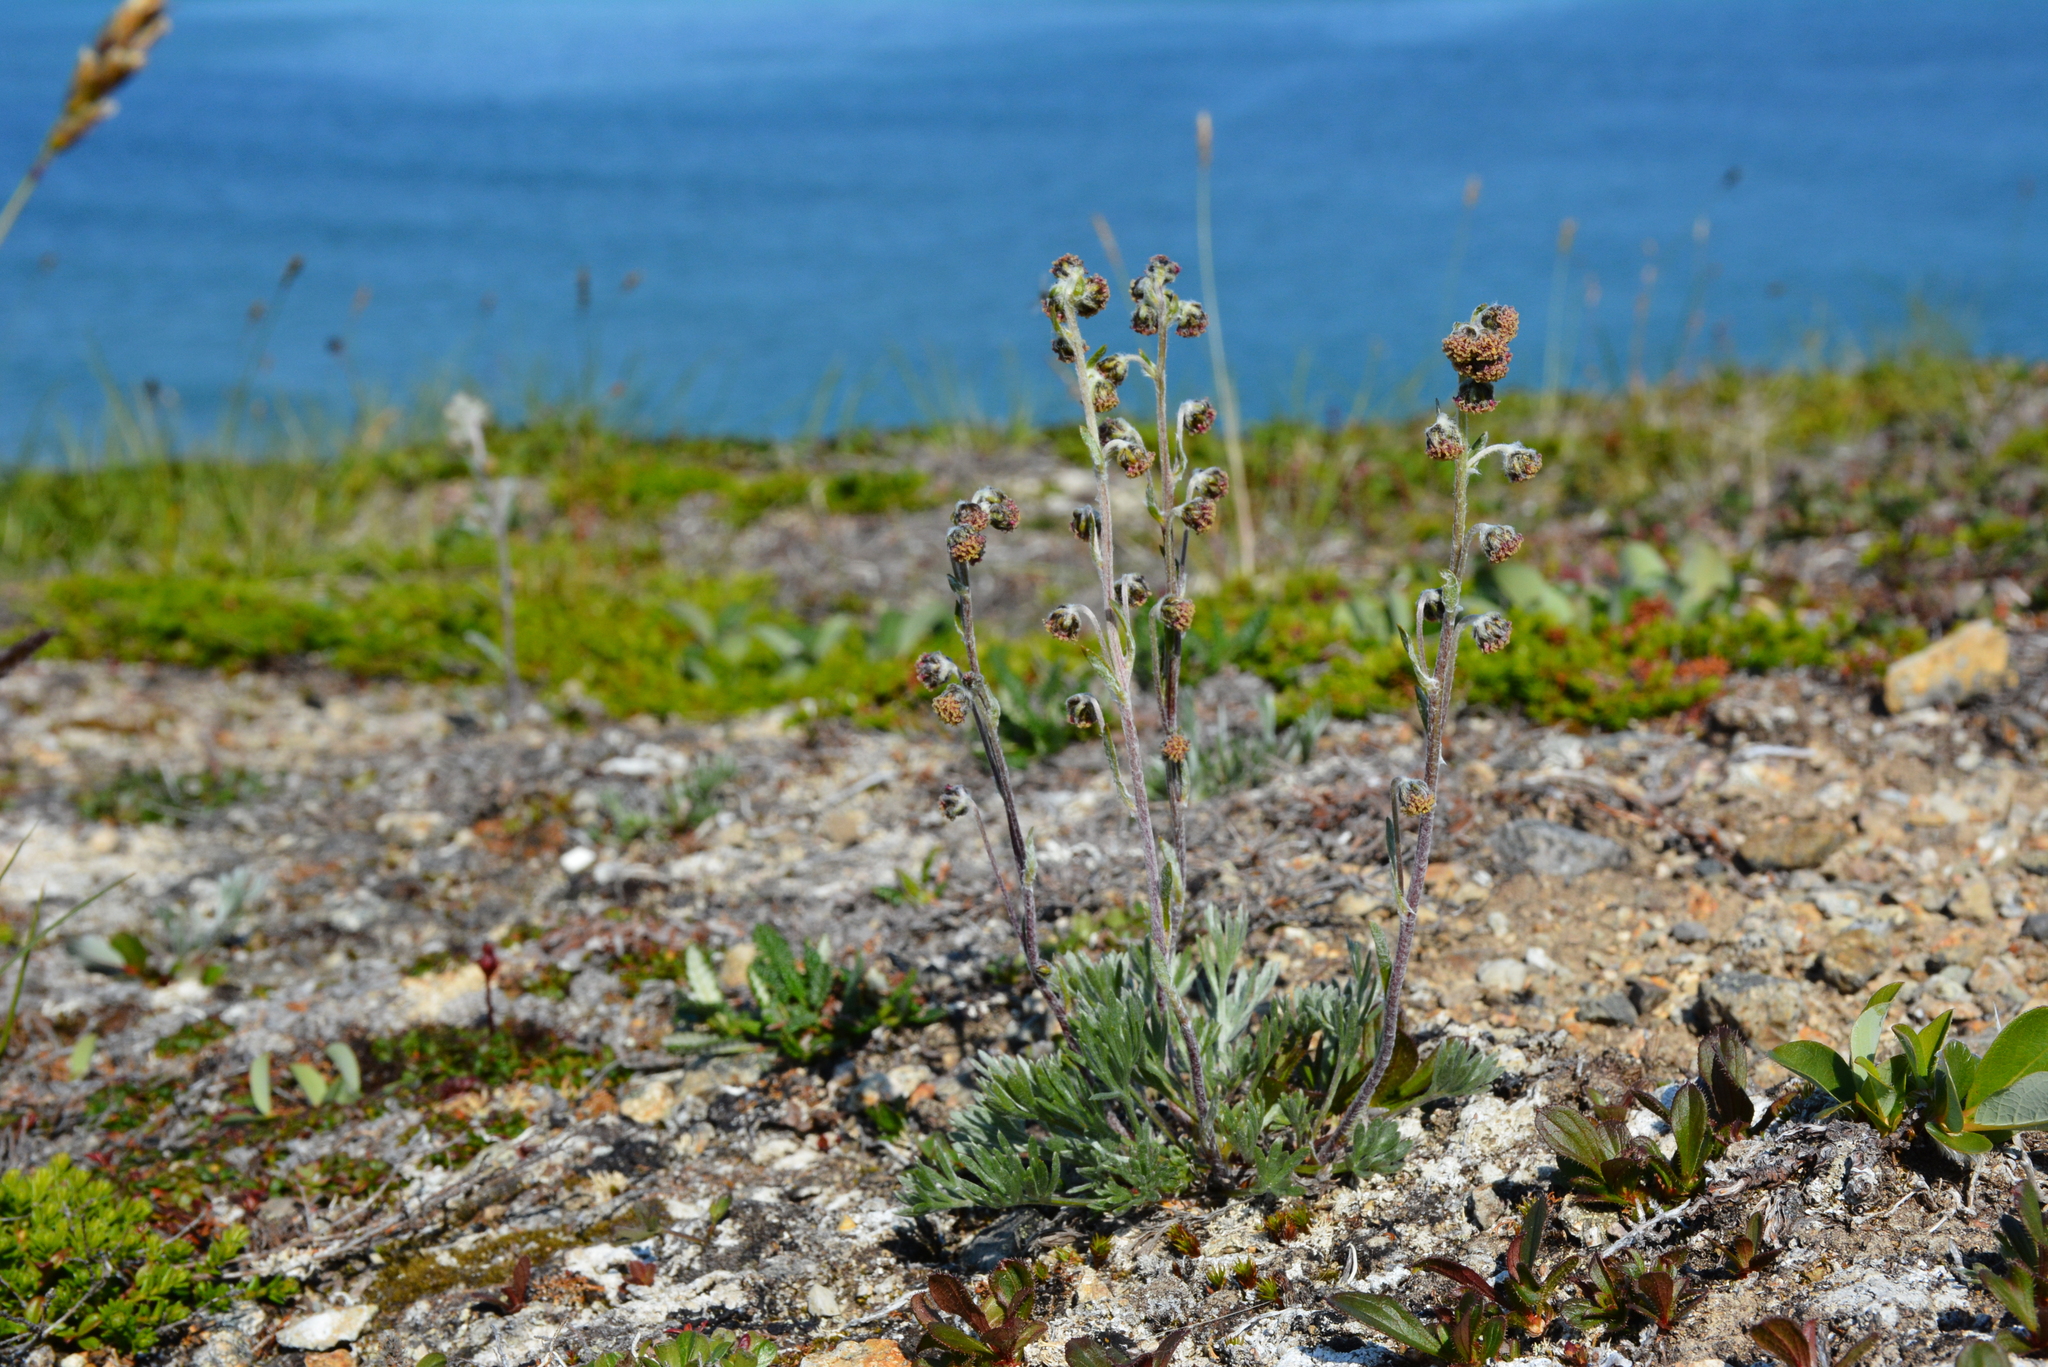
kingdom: Plantae
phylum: Tracheophyta
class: Magnoliopsida
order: Asterales
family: Asteraceae
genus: Artemisia
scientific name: Artemisia furcata
